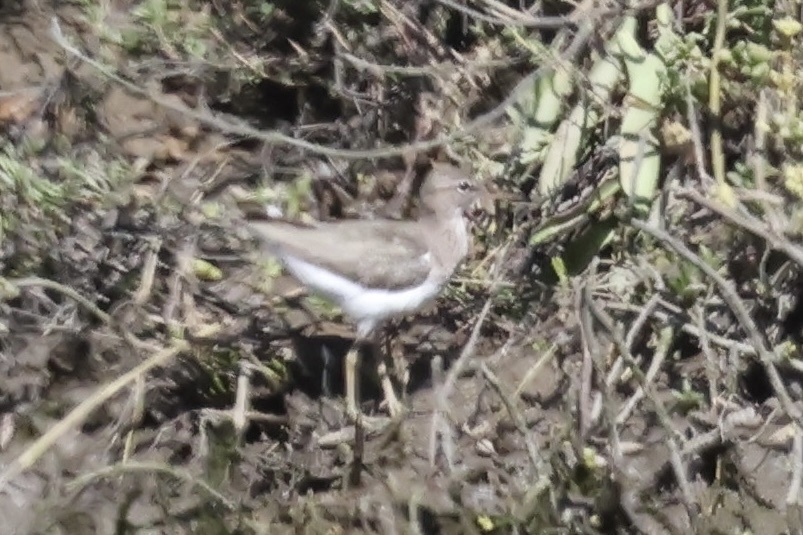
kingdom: Animalia
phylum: Chordata
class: Aves
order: Charadriiformes
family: Scolopacidae
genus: Actitis
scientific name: Actitis macularius
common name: Spotted sandpiper
